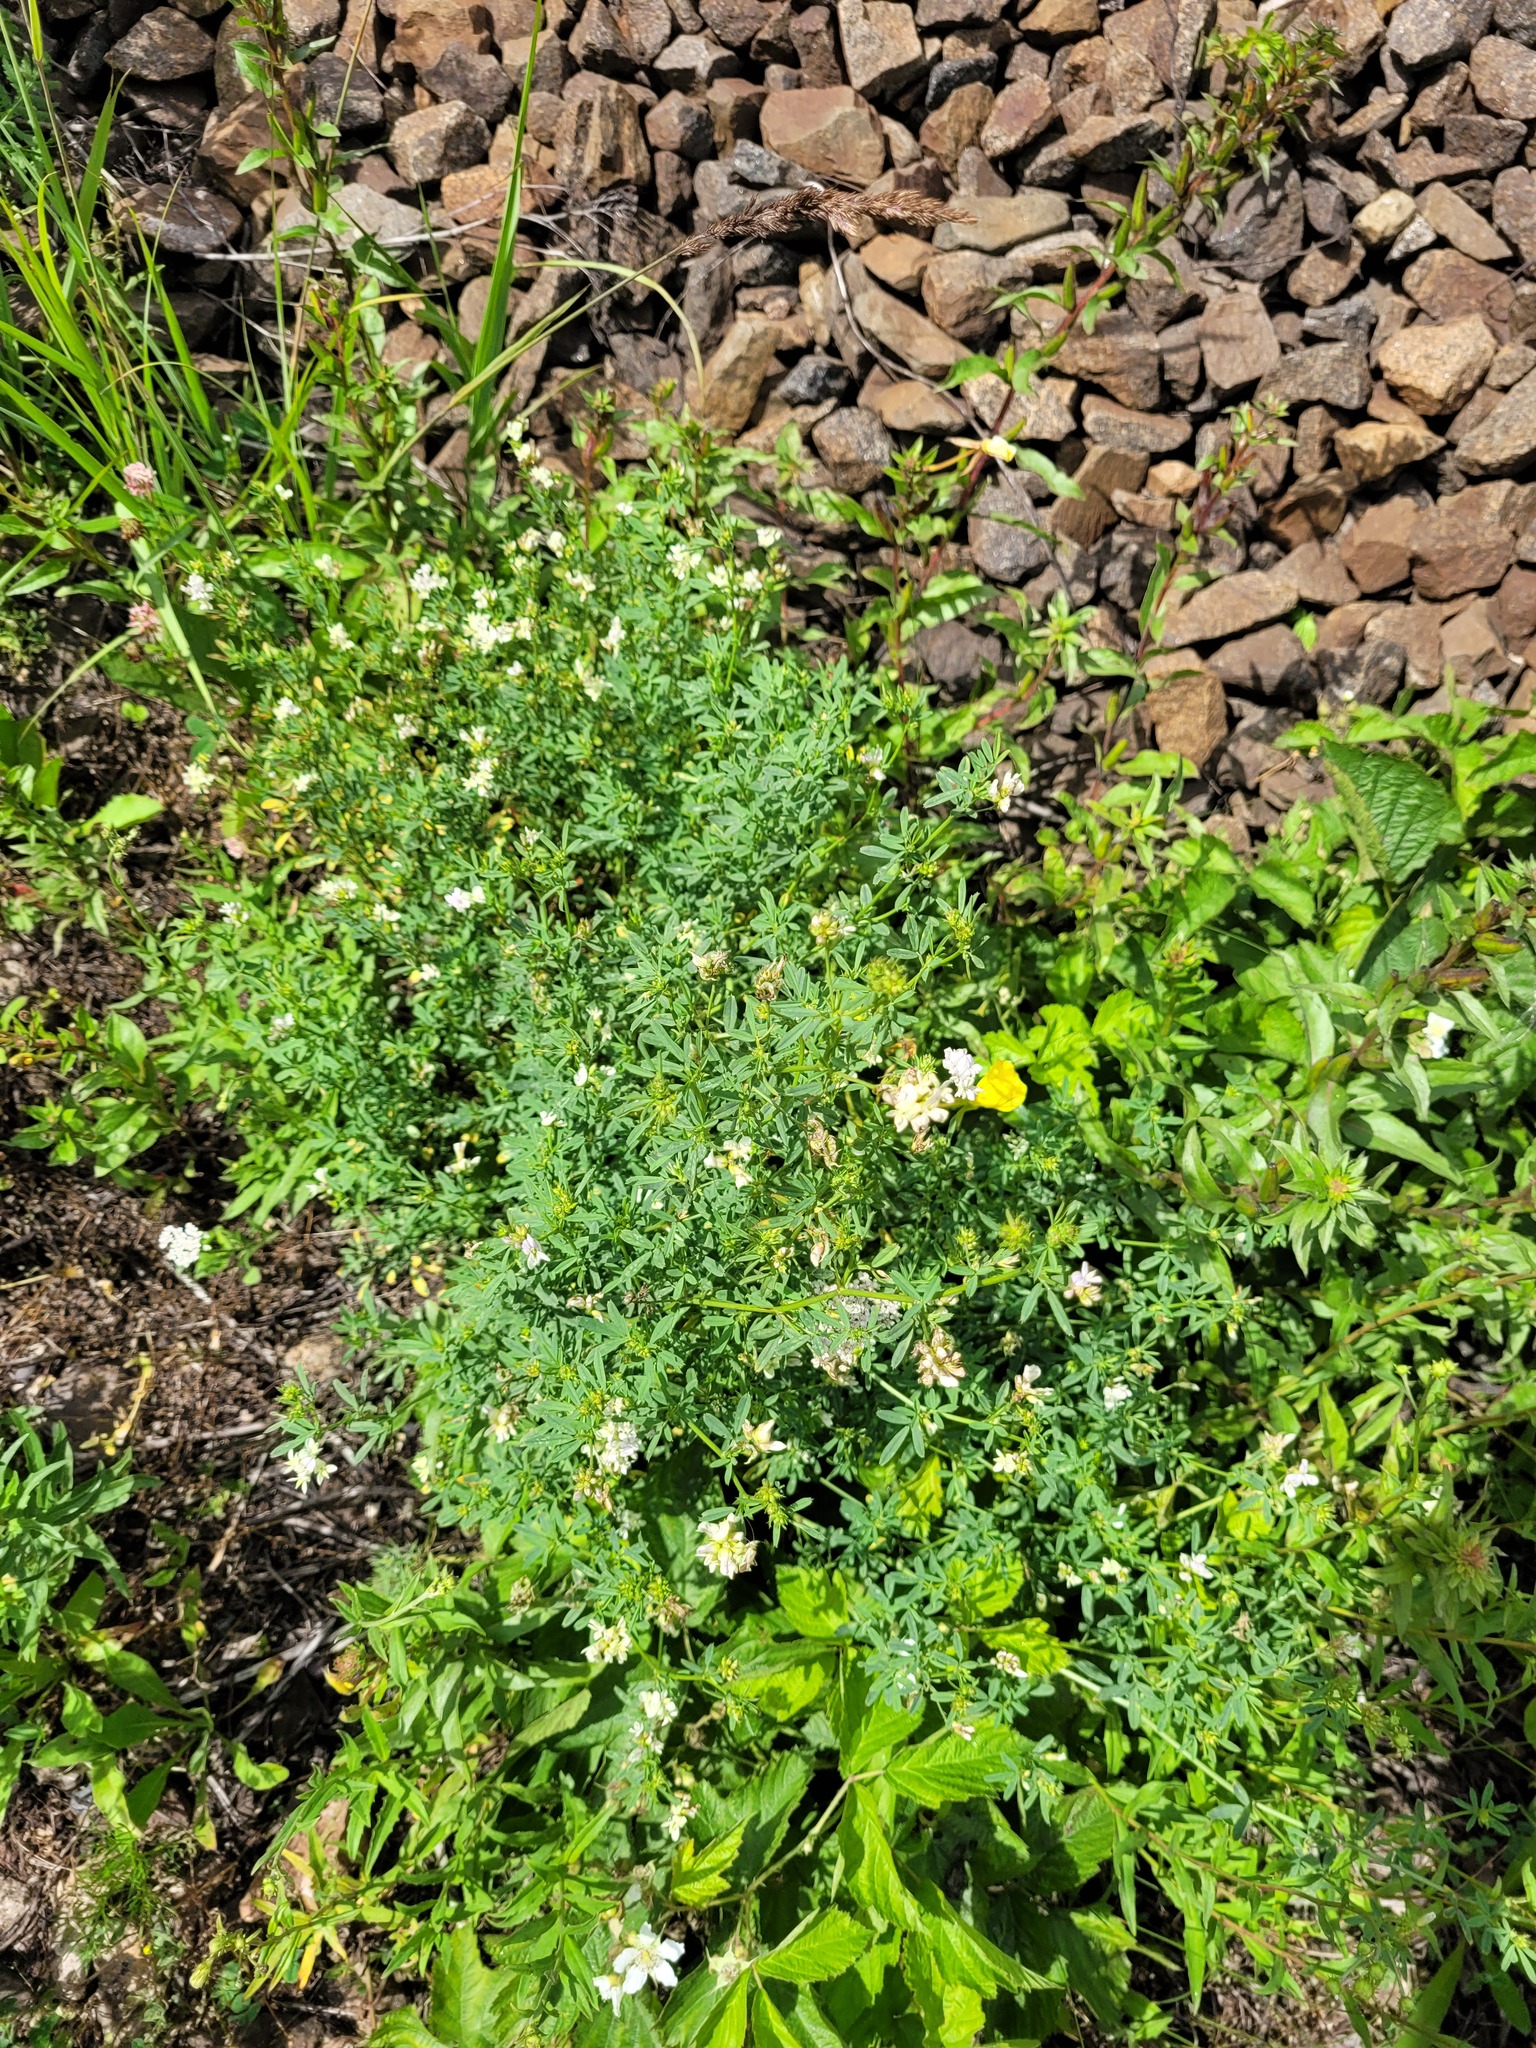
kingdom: Plantae
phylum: Tracheophyta
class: Magnoliopsida
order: Fabales
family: Fabaceae
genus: Medicago
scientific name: Medicago varia
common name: Sand lucerne
